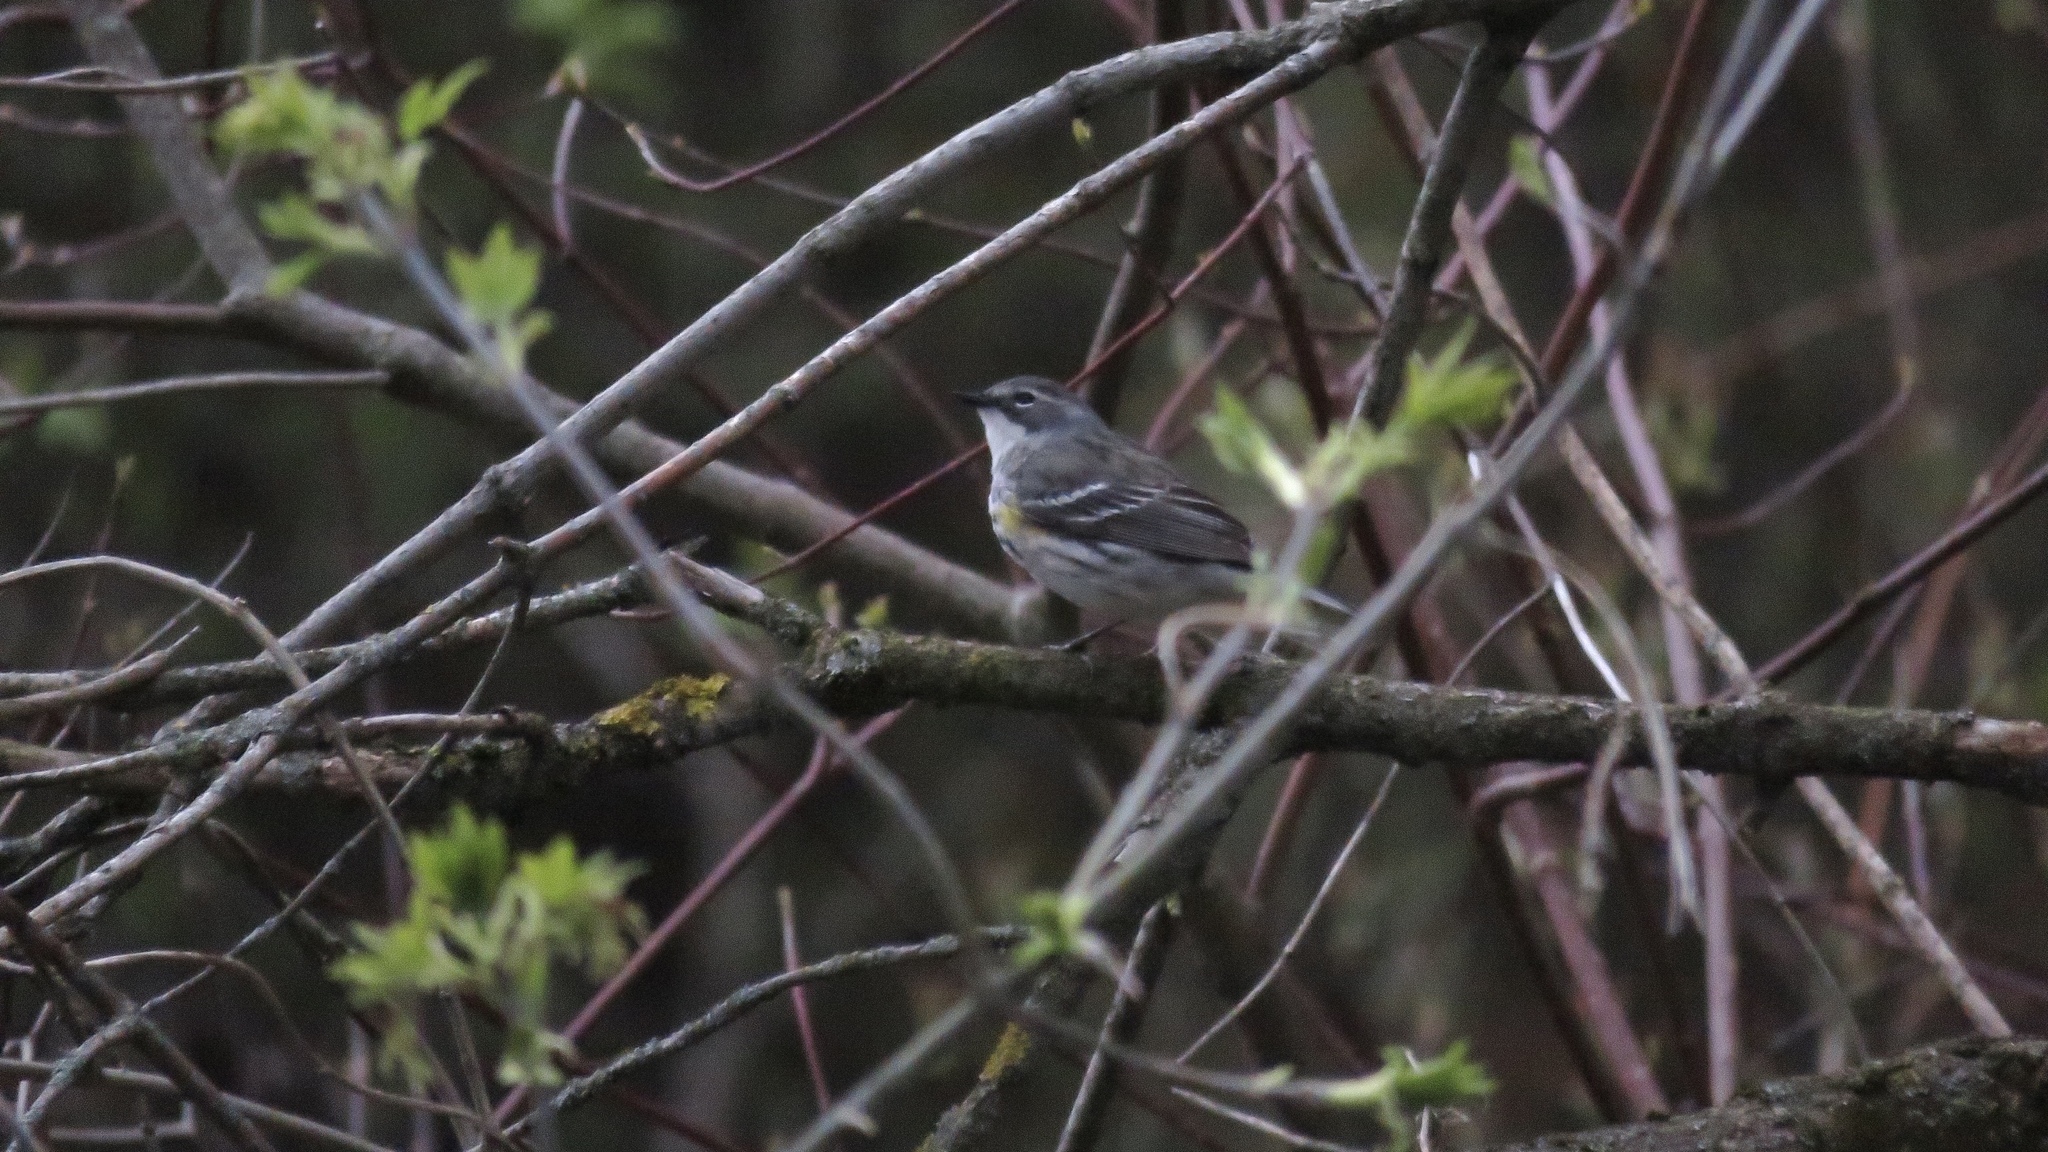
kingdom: Animalia
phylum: Chordata
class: Aves
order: Passeriformes
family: Parulidae
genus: Setophaga
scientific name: Setophaga coronata
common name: Myrtle warbler
